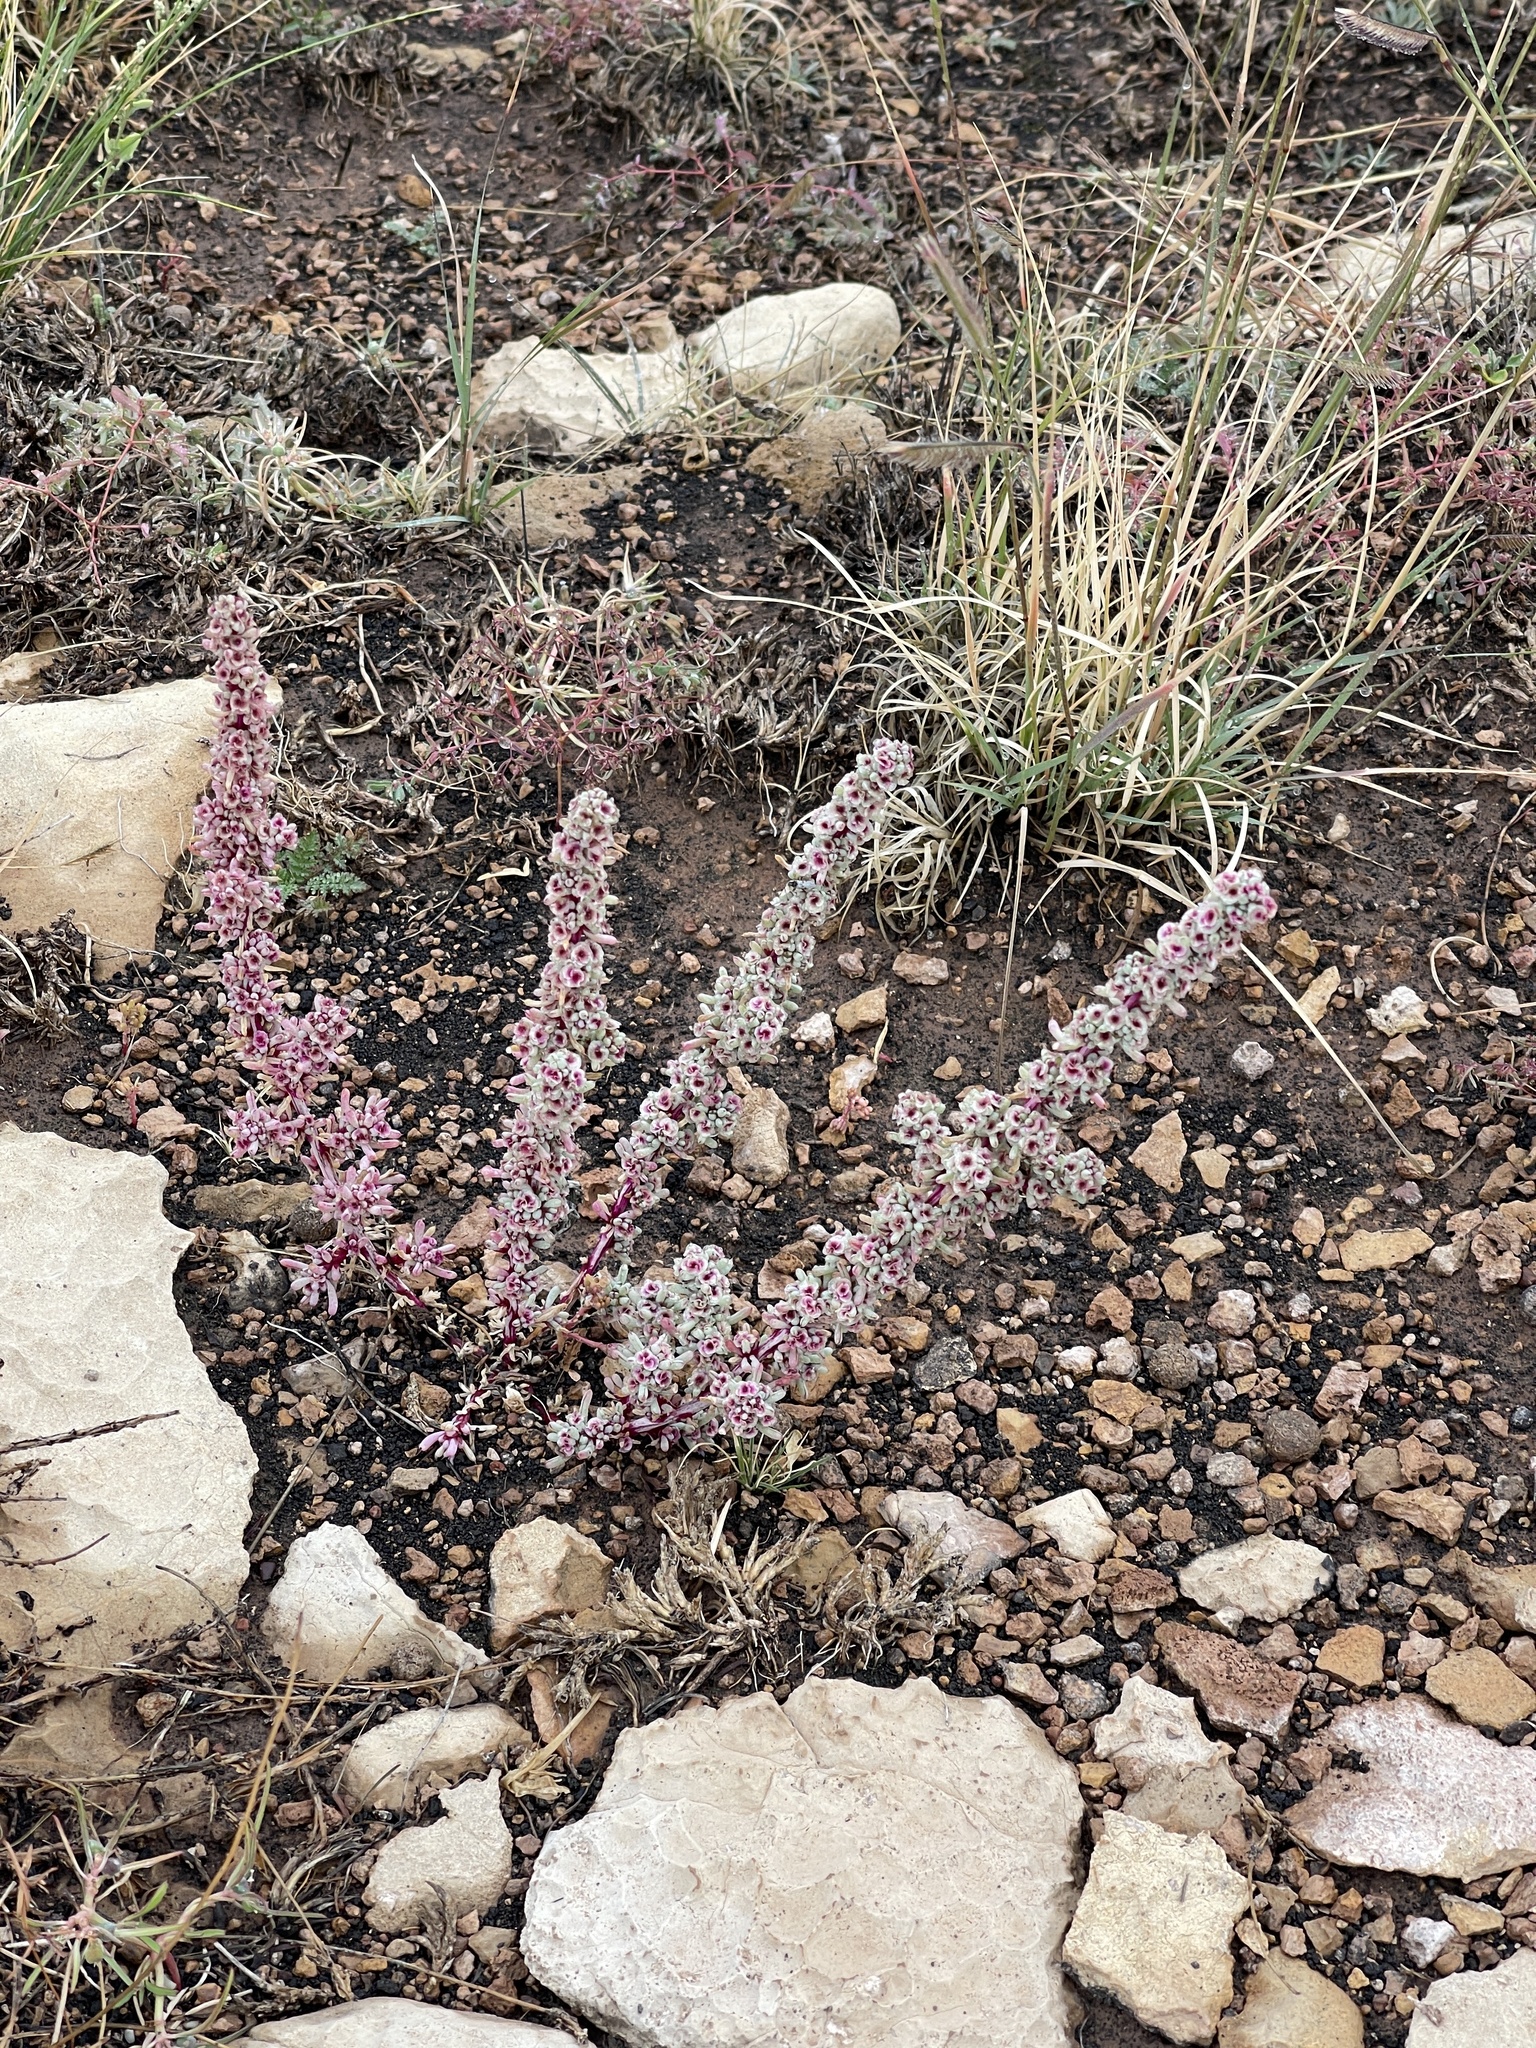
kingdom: Plantae
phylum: Tracheophyta
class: Magnoliopsida
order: Caryophyllales
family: Amaranthaceae
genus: Halogeton
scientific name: Halogeton glomeratus
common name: Saltlover
